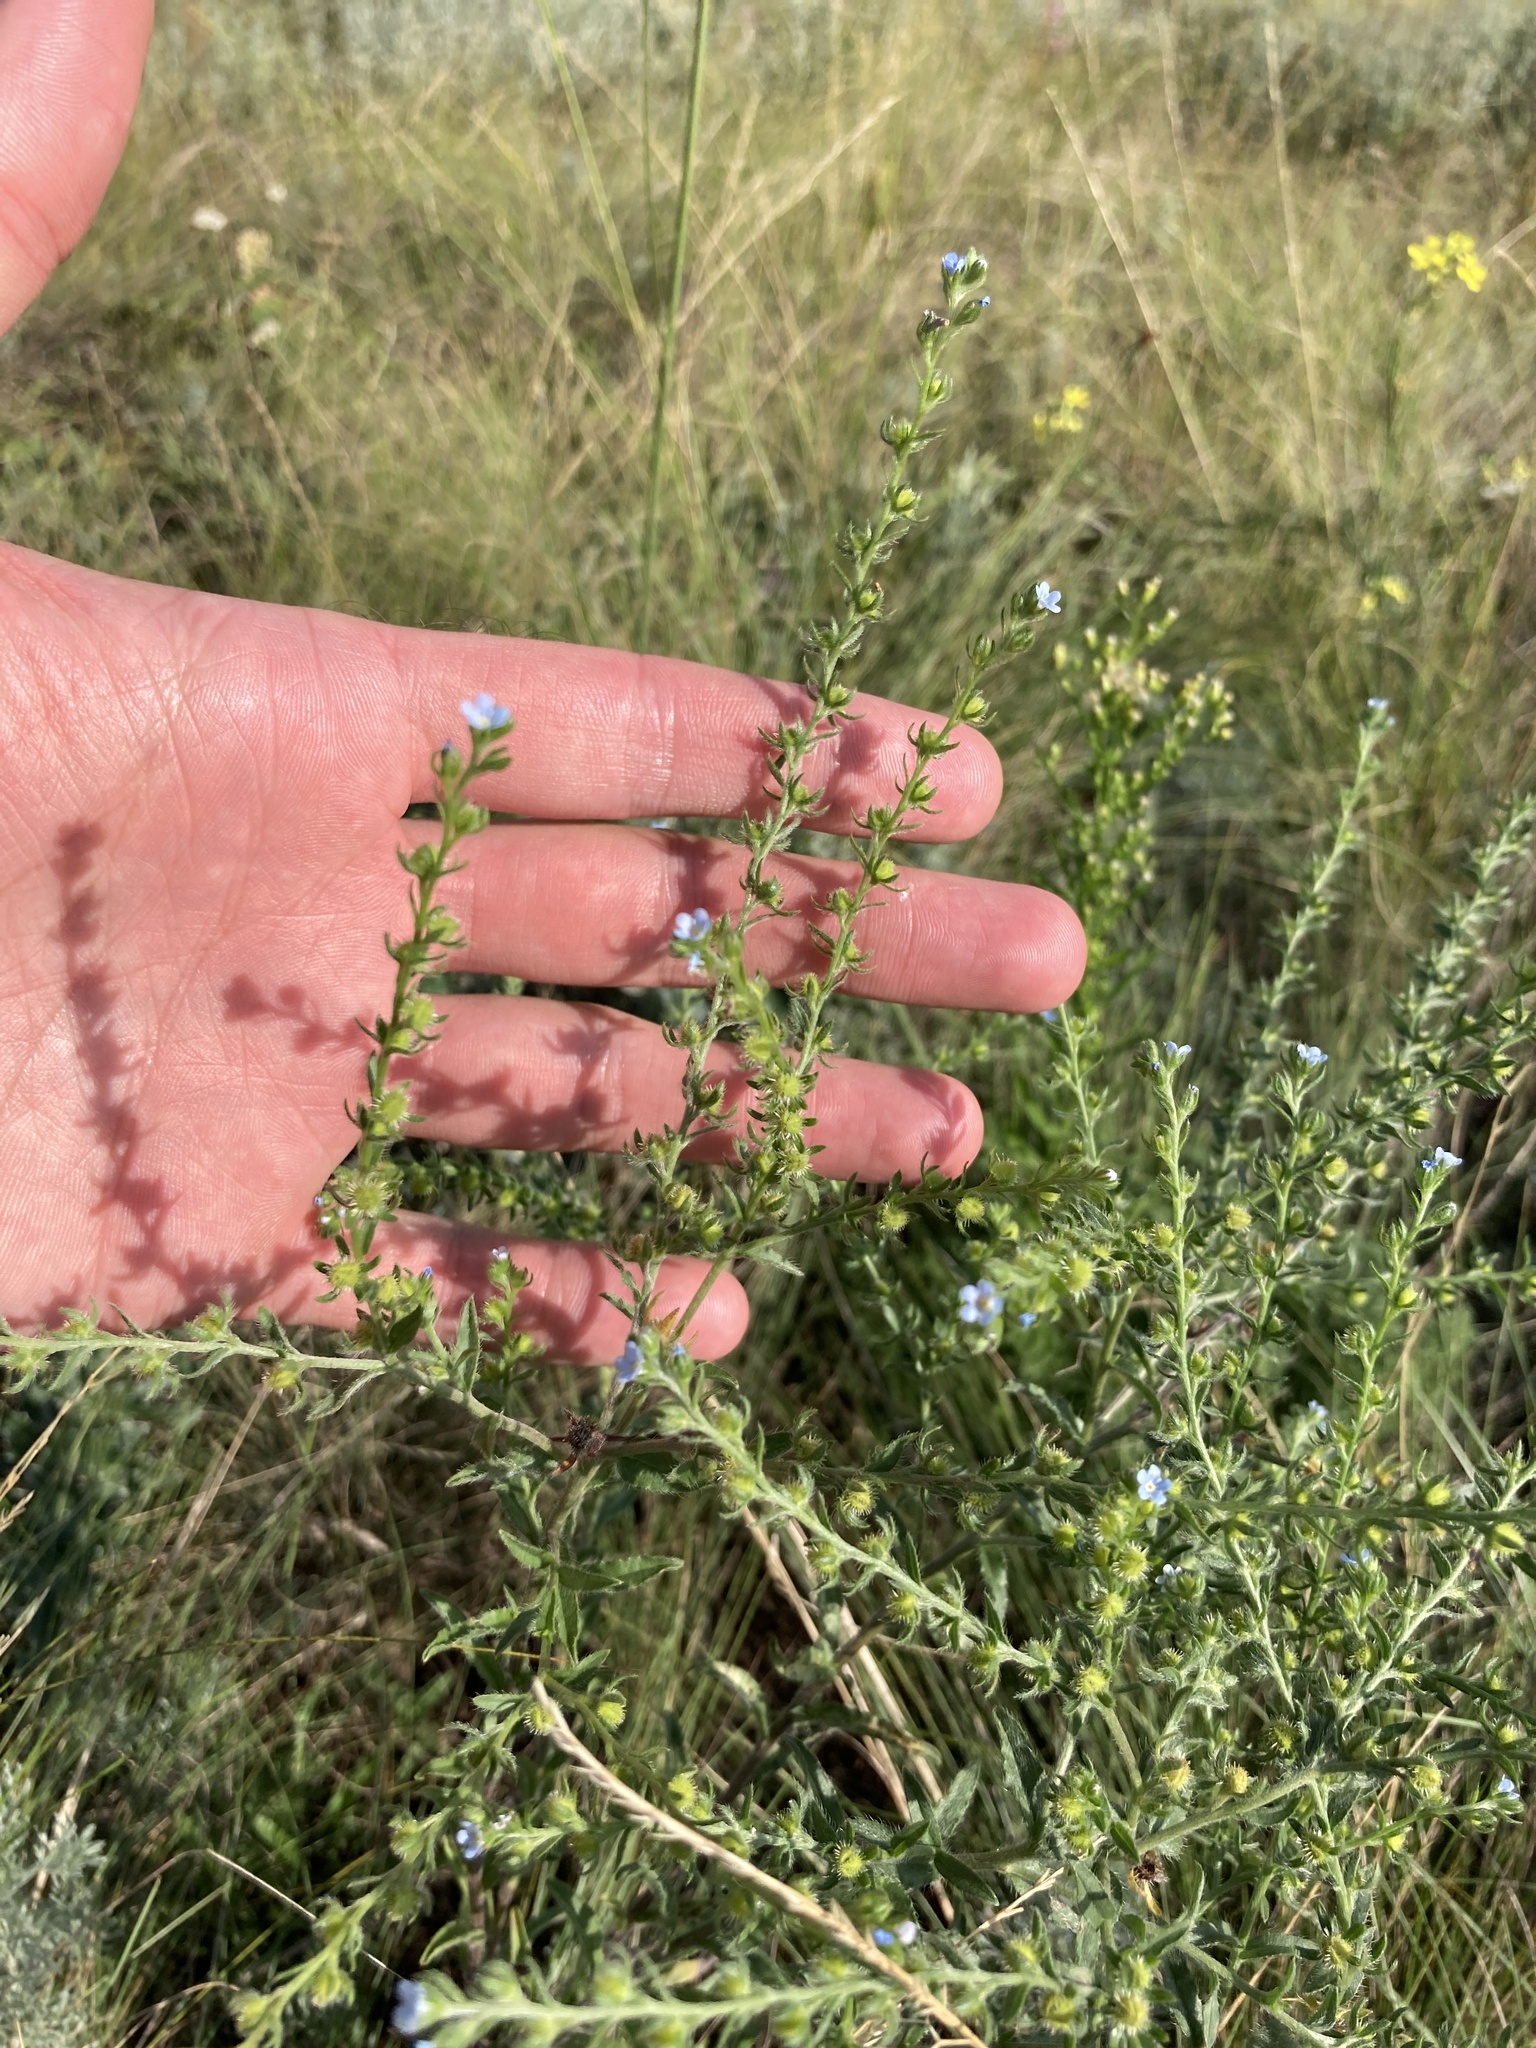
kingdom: Plantae
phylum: Tracheophyta
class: Magnoliopsida
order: Boraginales
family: Boraginaceae
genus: Lappula
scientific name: Lappula squarrosa
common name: European stickseed
